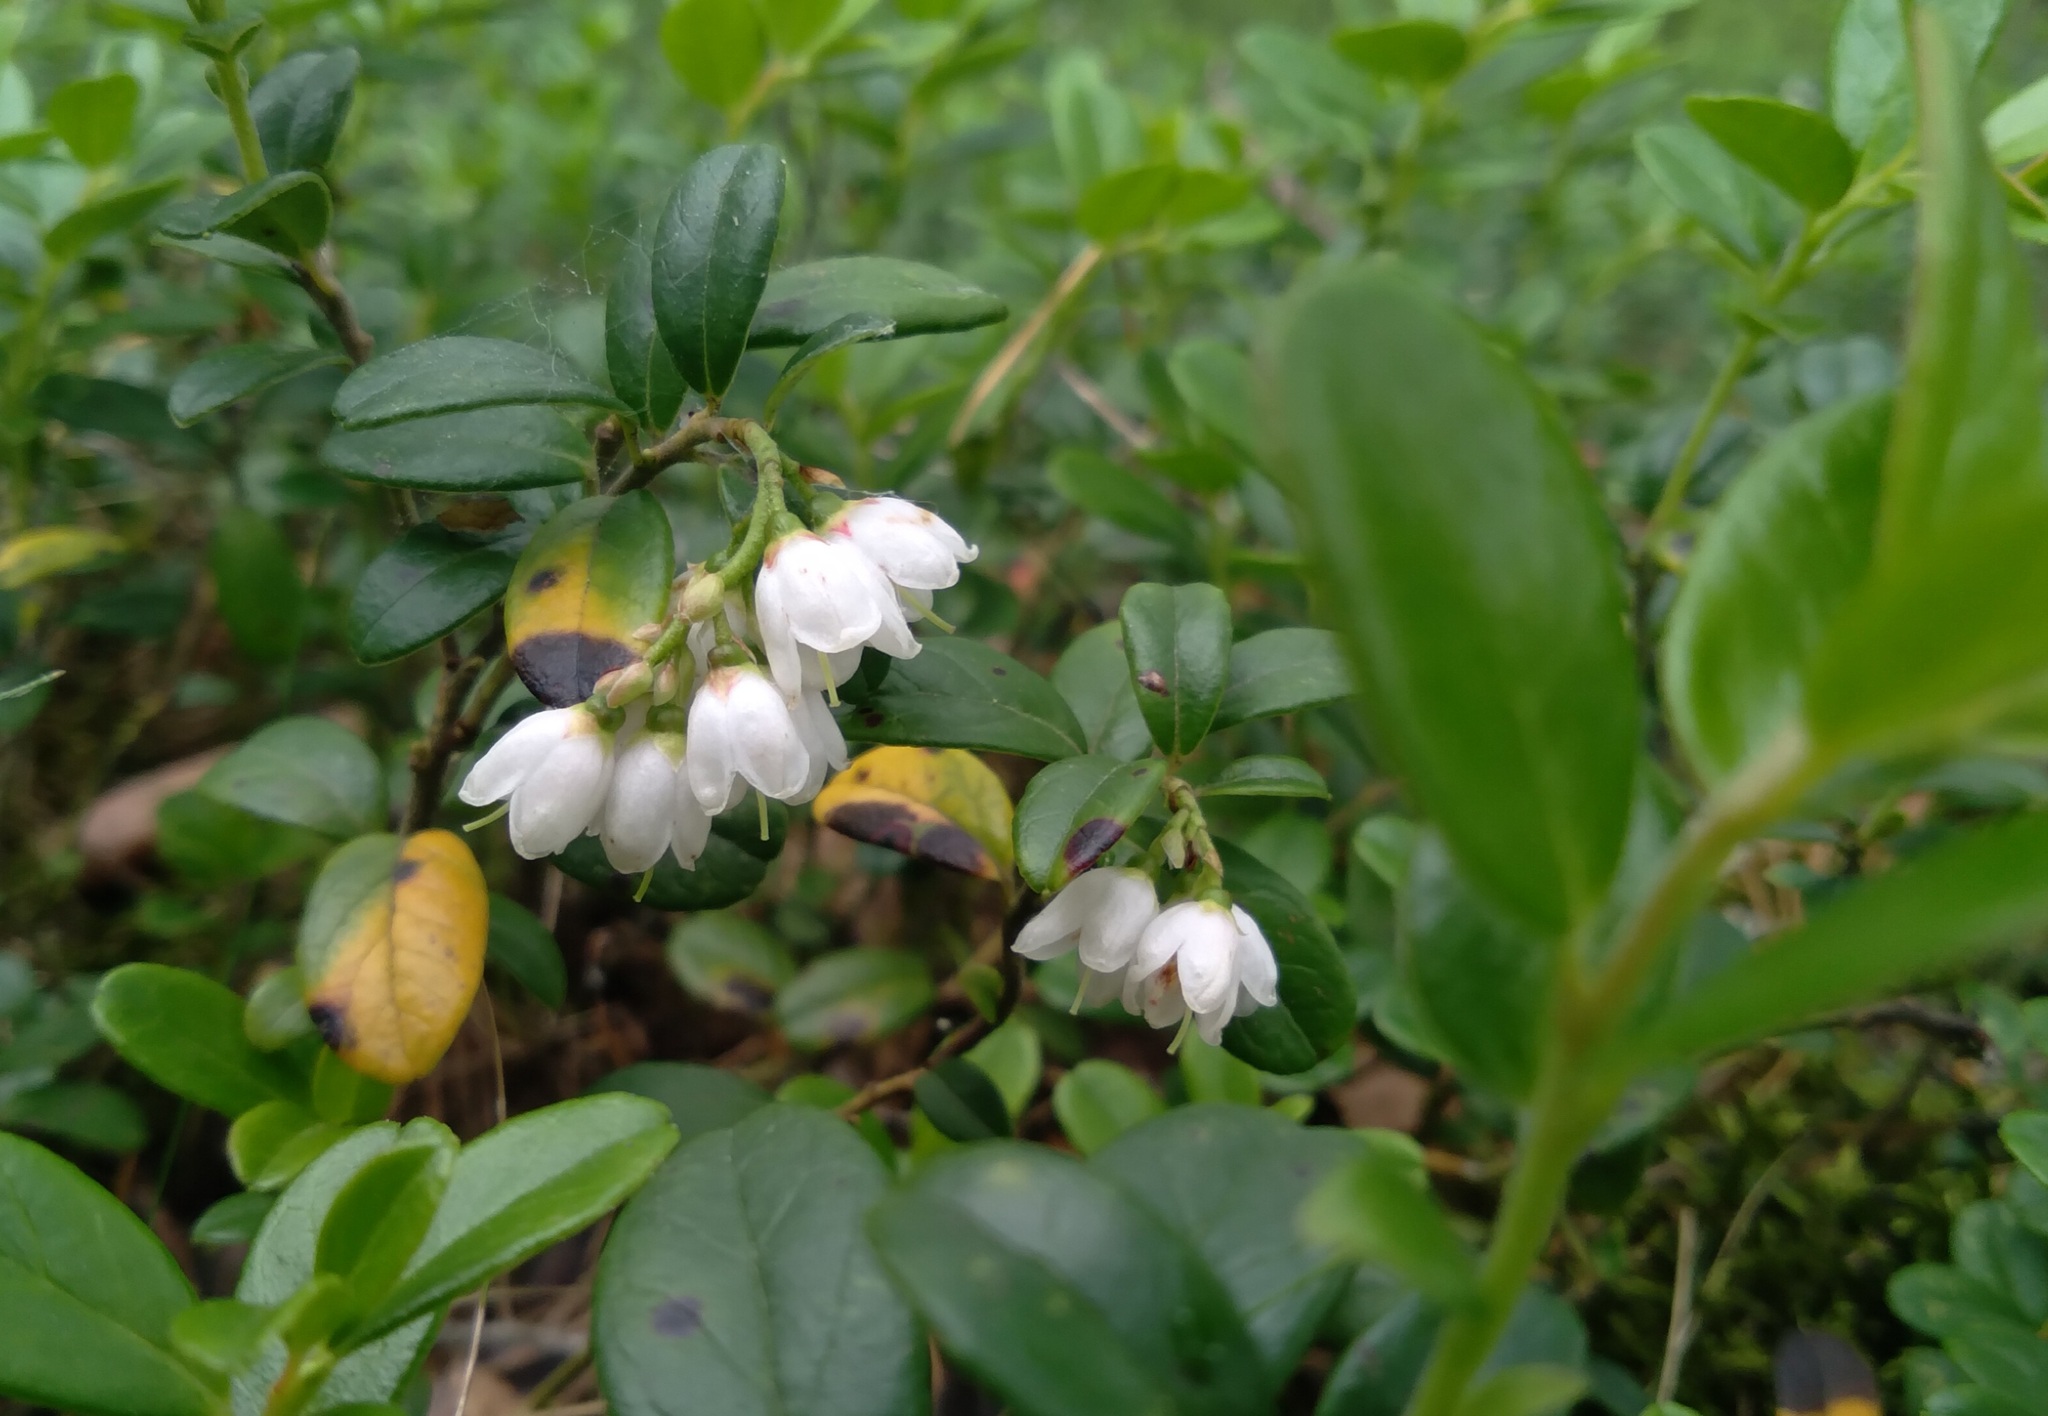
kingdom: Plantae
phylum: Tracheophyta
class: Magnoliopsida
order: Ericales
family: Ericaceae
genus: Vaccinium
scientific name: Vaccinium vitis-idaea
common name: Cowberry
